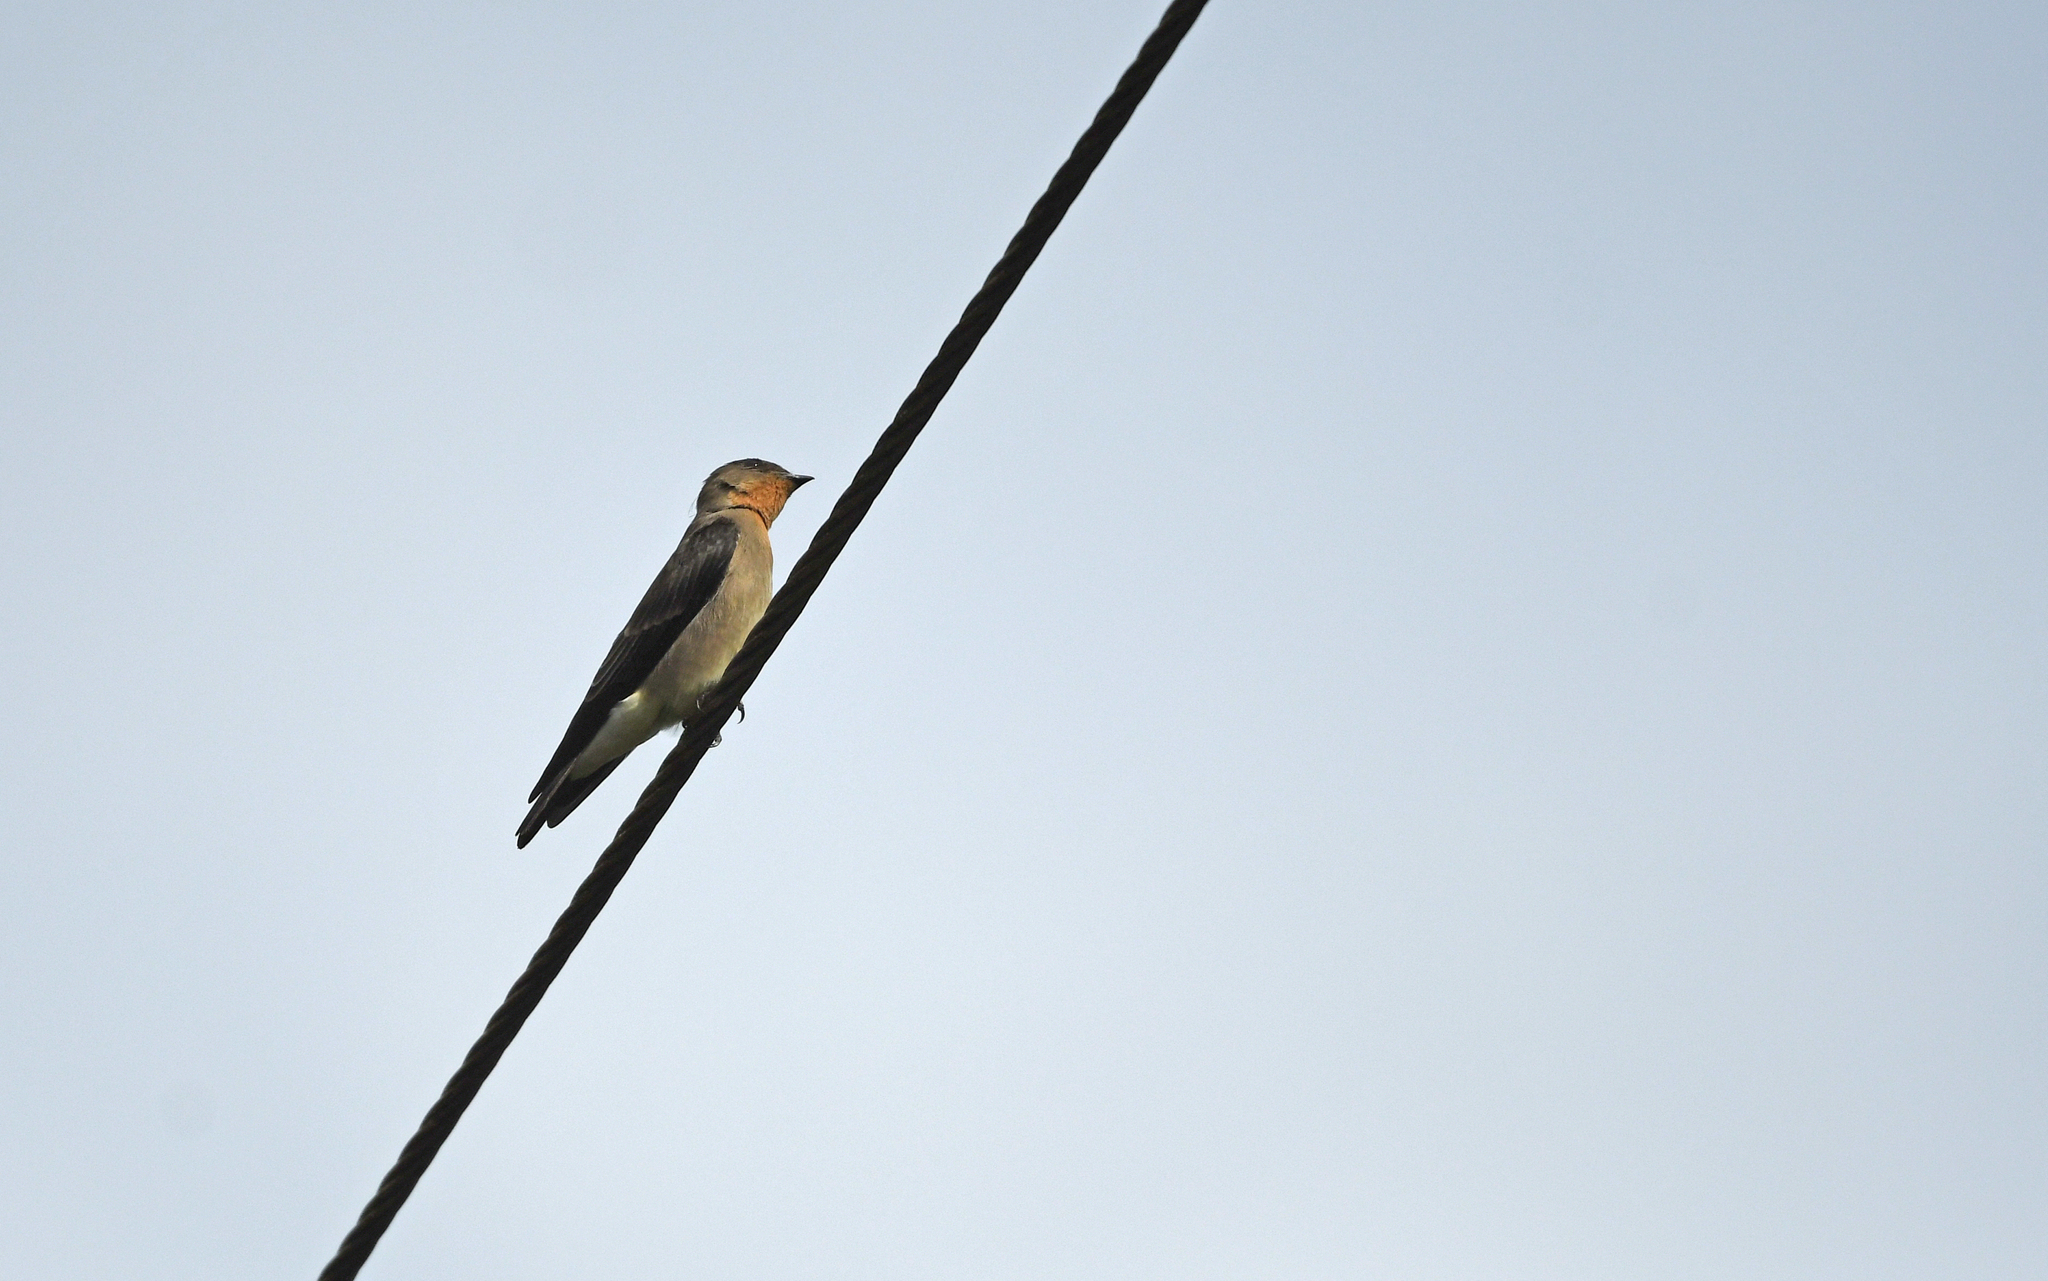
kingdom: Animalia
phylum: Chordata
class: Aves
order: Passeriformes
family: Hirundinidae
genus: Stelgidopteryx
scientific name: Stelgidopteryx ruficollis
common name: Southern rough-winged swallow
